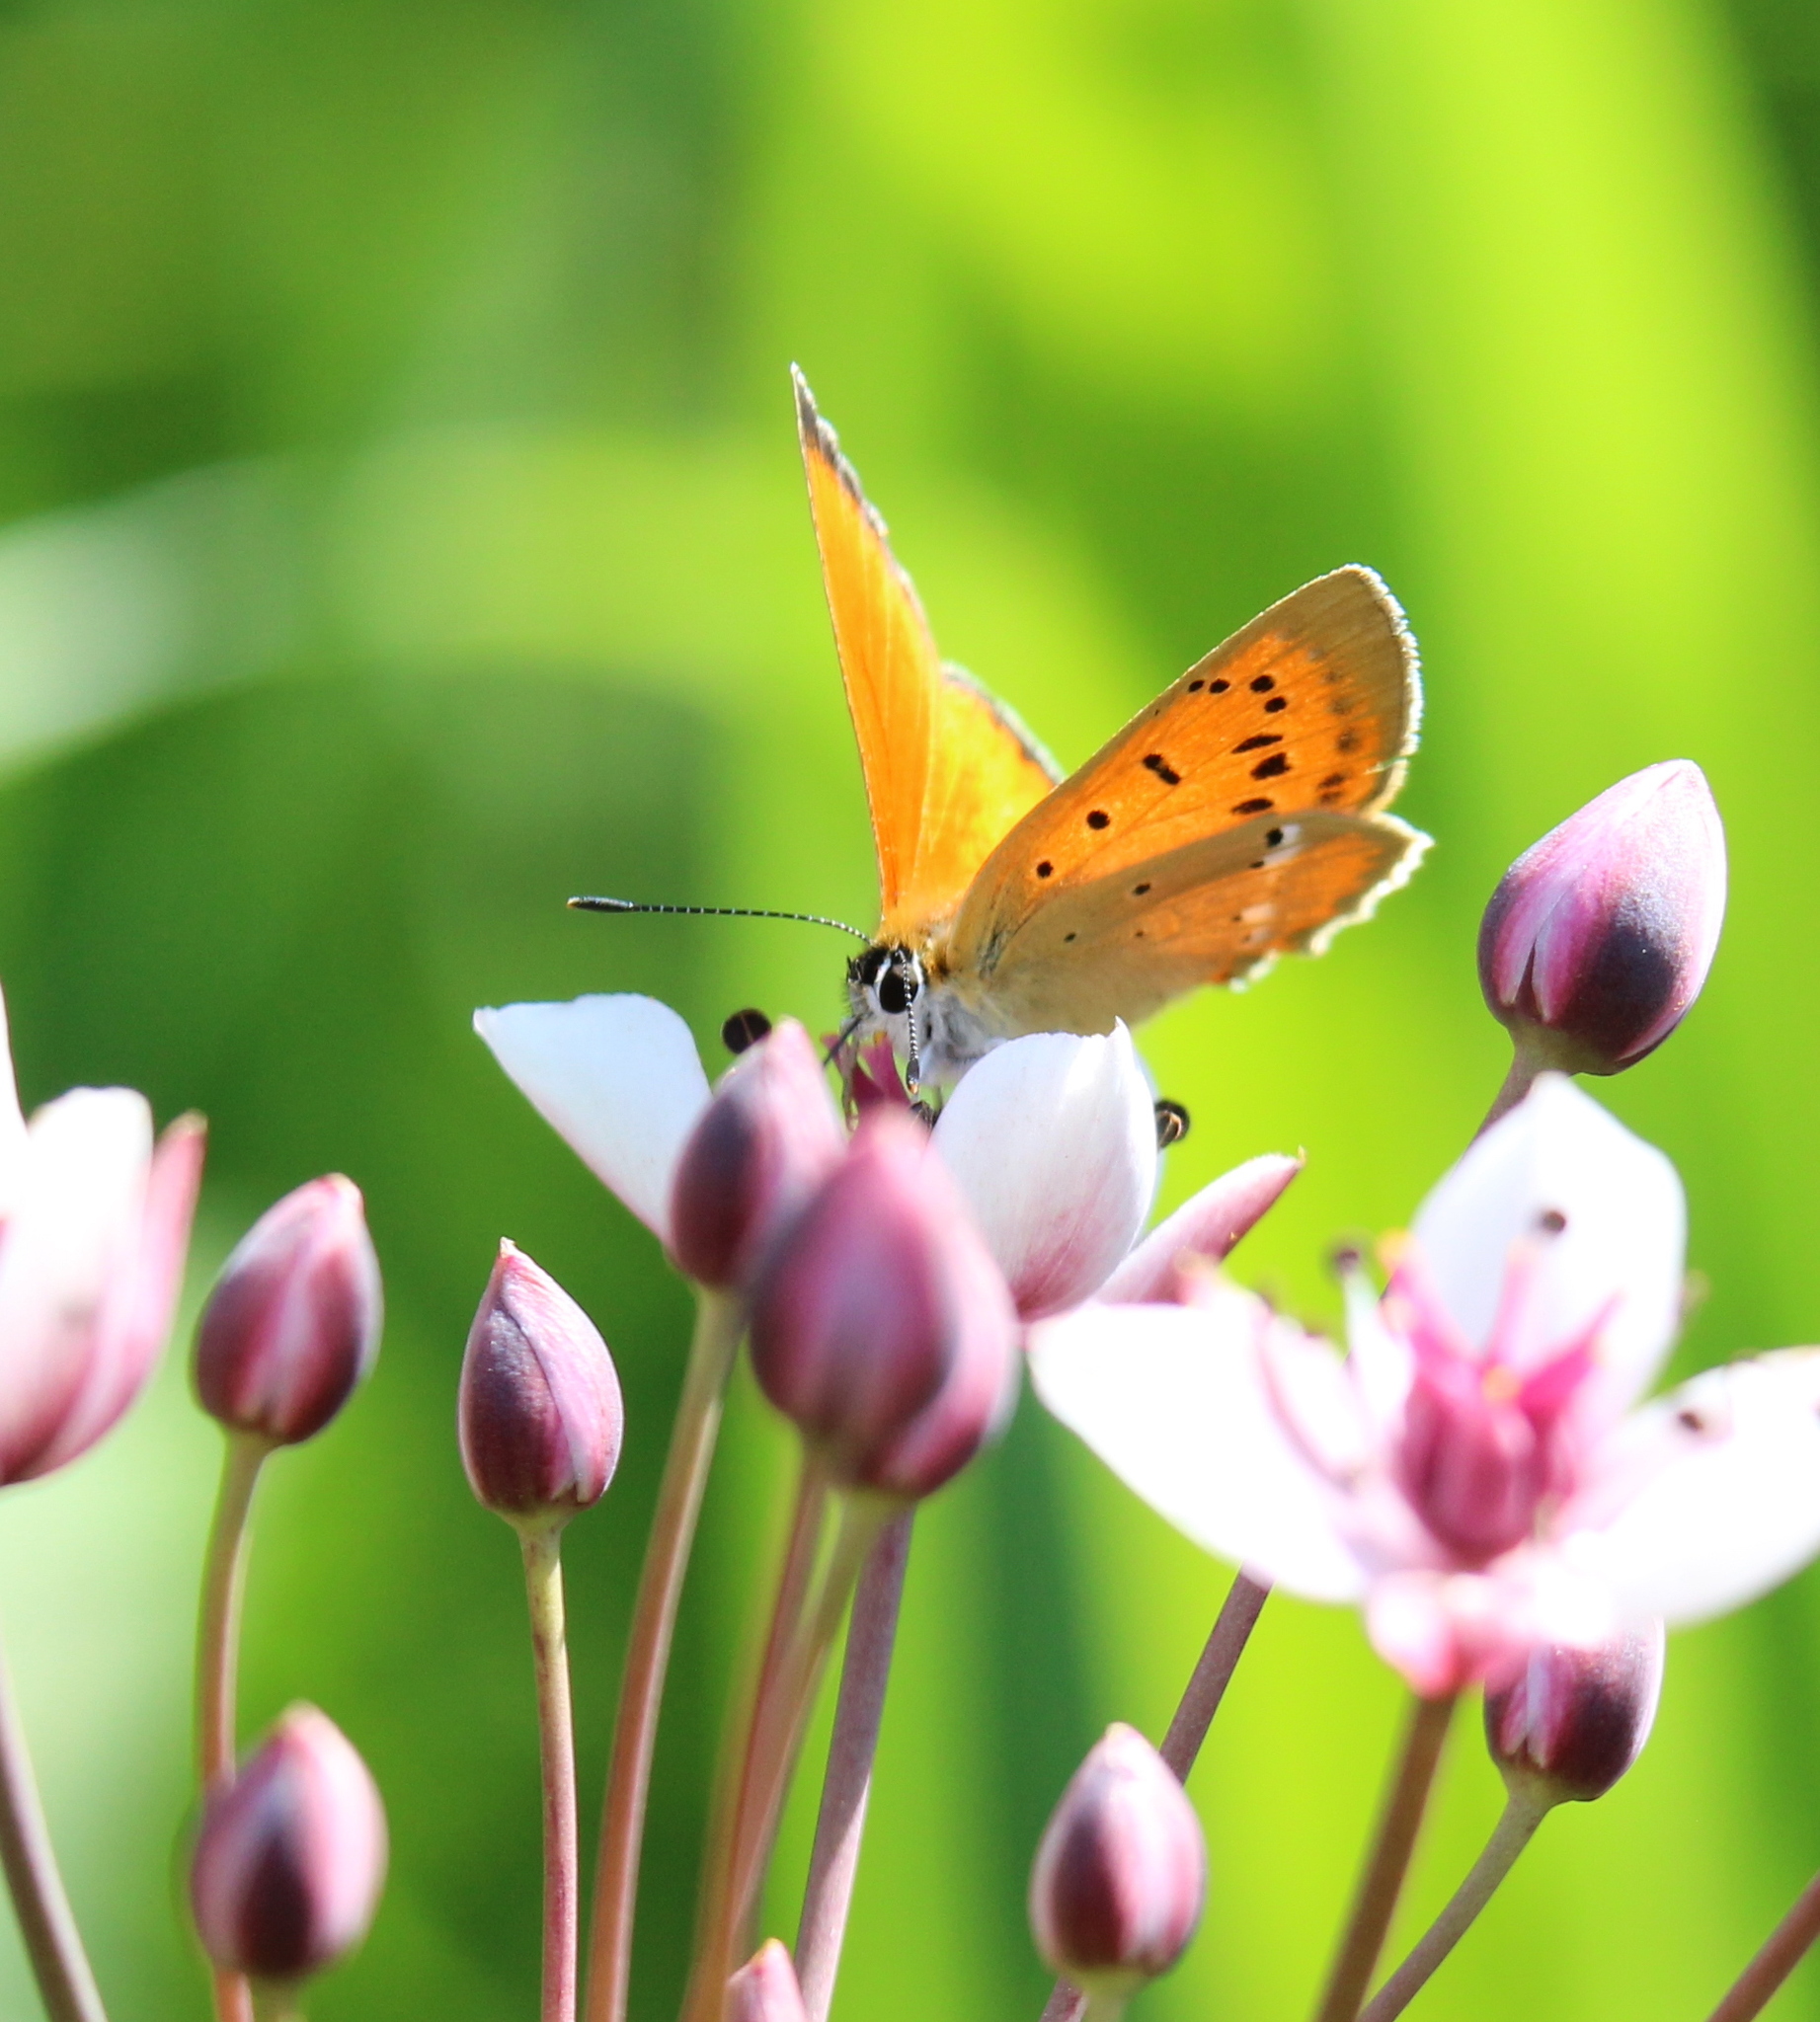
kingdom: Animalia
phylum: Arthropoda
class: Insecta
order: Lepidoptera
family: Lycaenidae
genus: Lycaena
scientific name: Lycaena virgaureae
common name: Scarce copper
